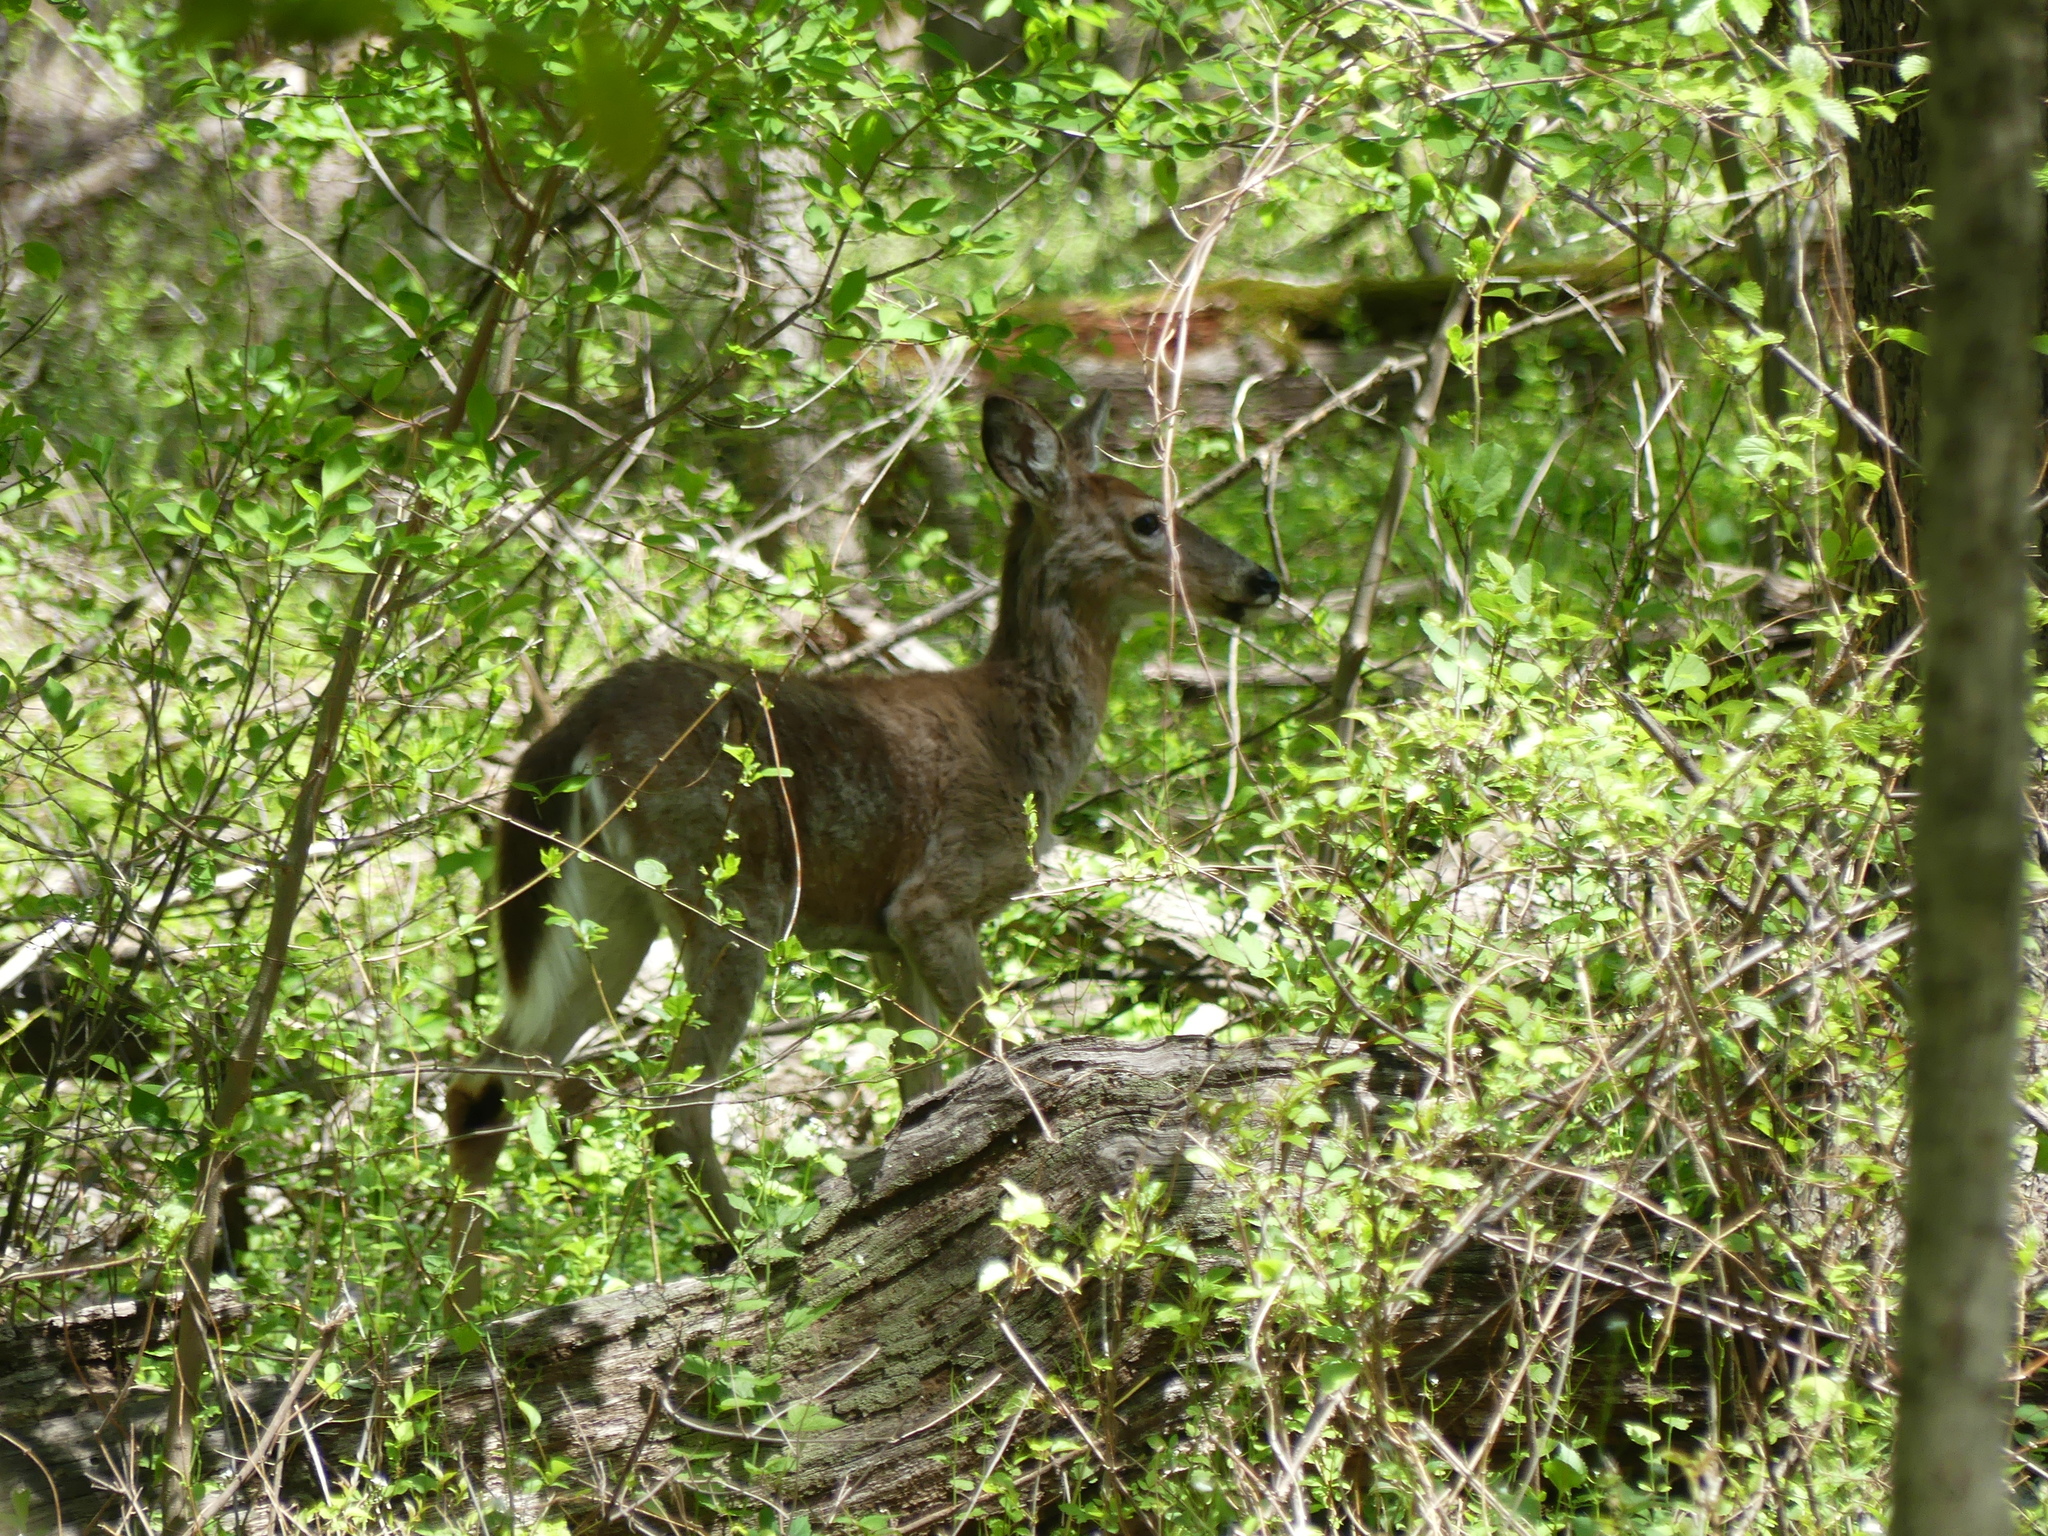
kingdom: Animalia
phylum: Chordata
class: Mammalia
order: Artiodactyla
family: Cervidae
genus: Odocoileus
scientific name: Odocoileus virginianus
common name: White-tailed deer
